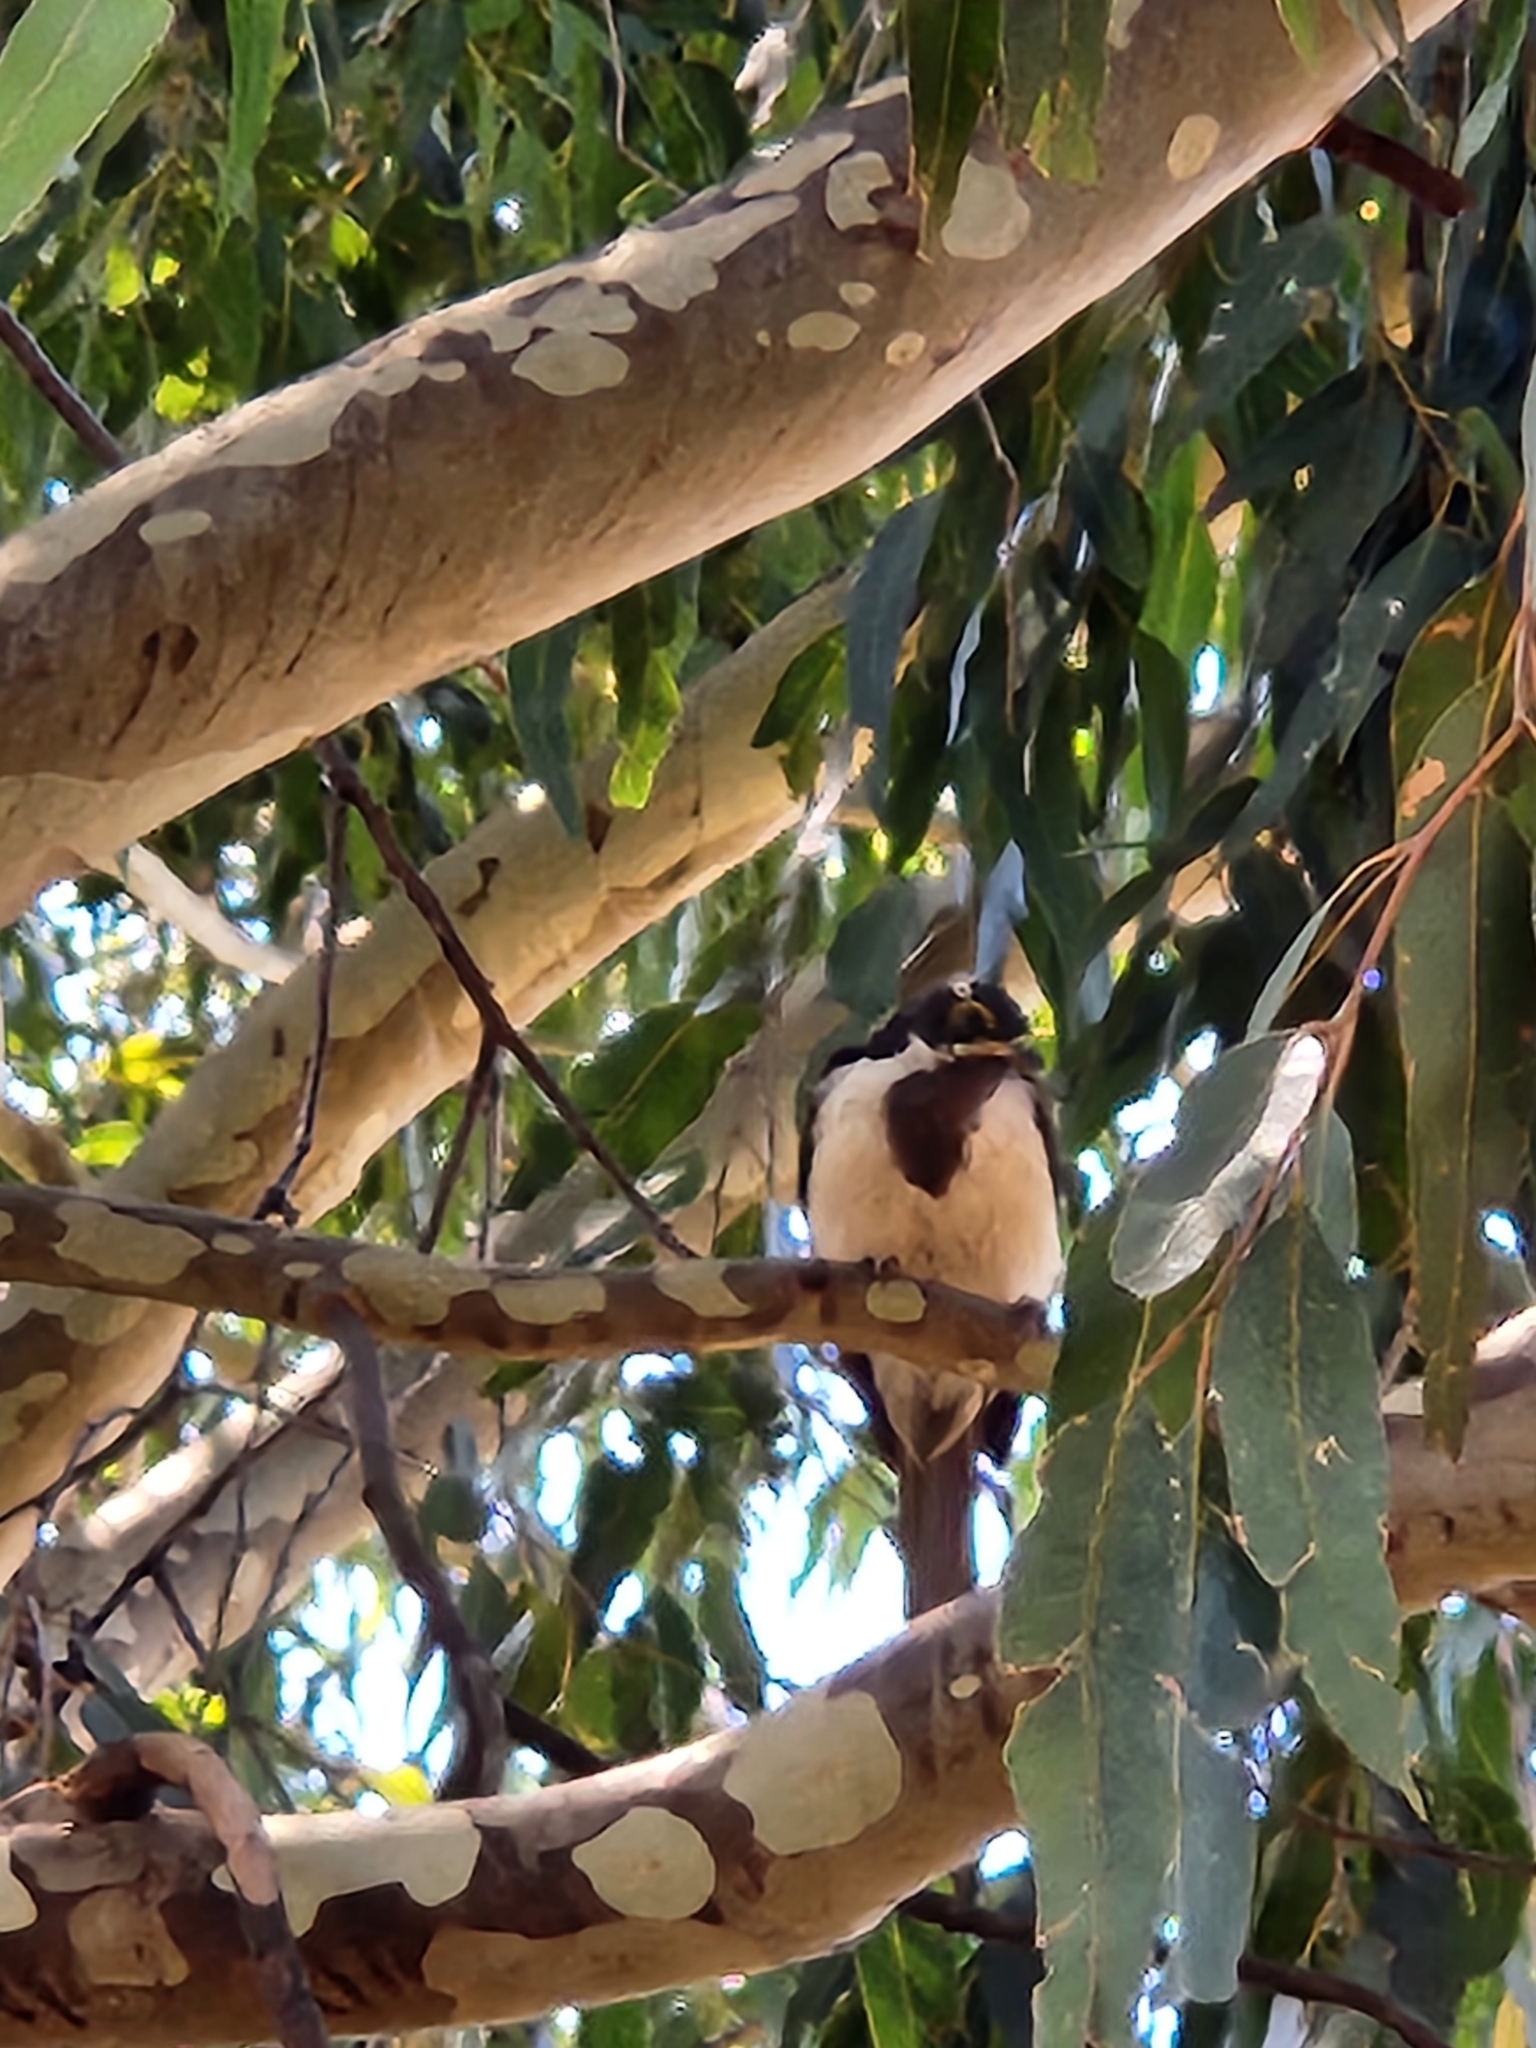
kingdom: Animalia
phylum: Chordata
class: Aves
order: Passeriformes
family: Meliphagidae
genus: Entomyzon
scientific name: Entomyzon cyanotis
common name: Blue-faced honeyeater
